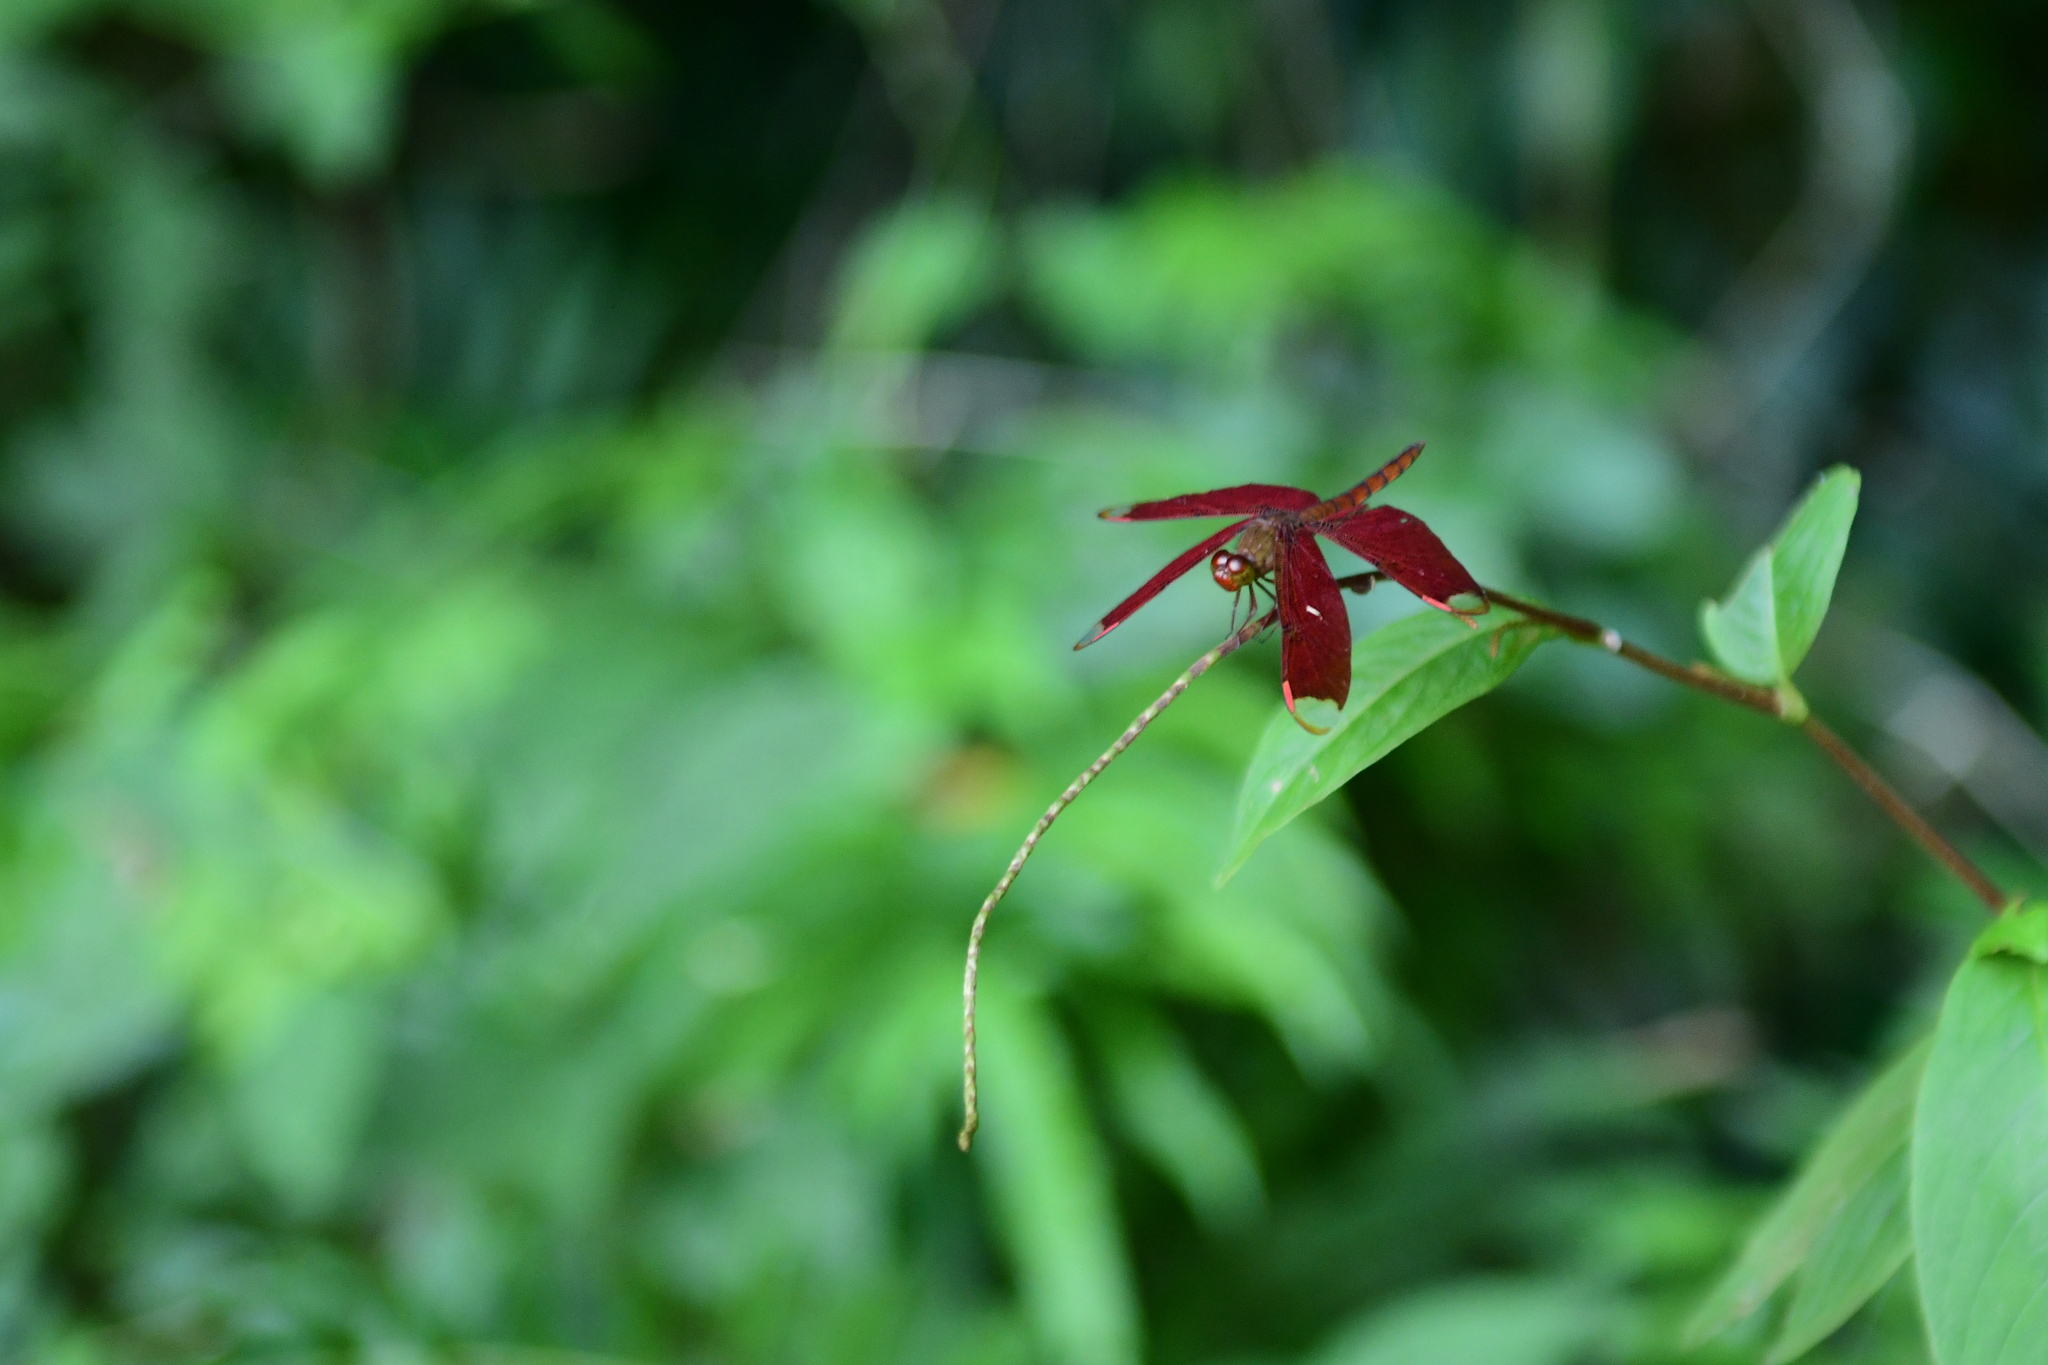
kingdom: Animalia
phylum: Arthropoda
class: Insecta
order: Odonata
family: Libellulidae
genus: Neurothemis
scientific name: Neurothemis fulvia
